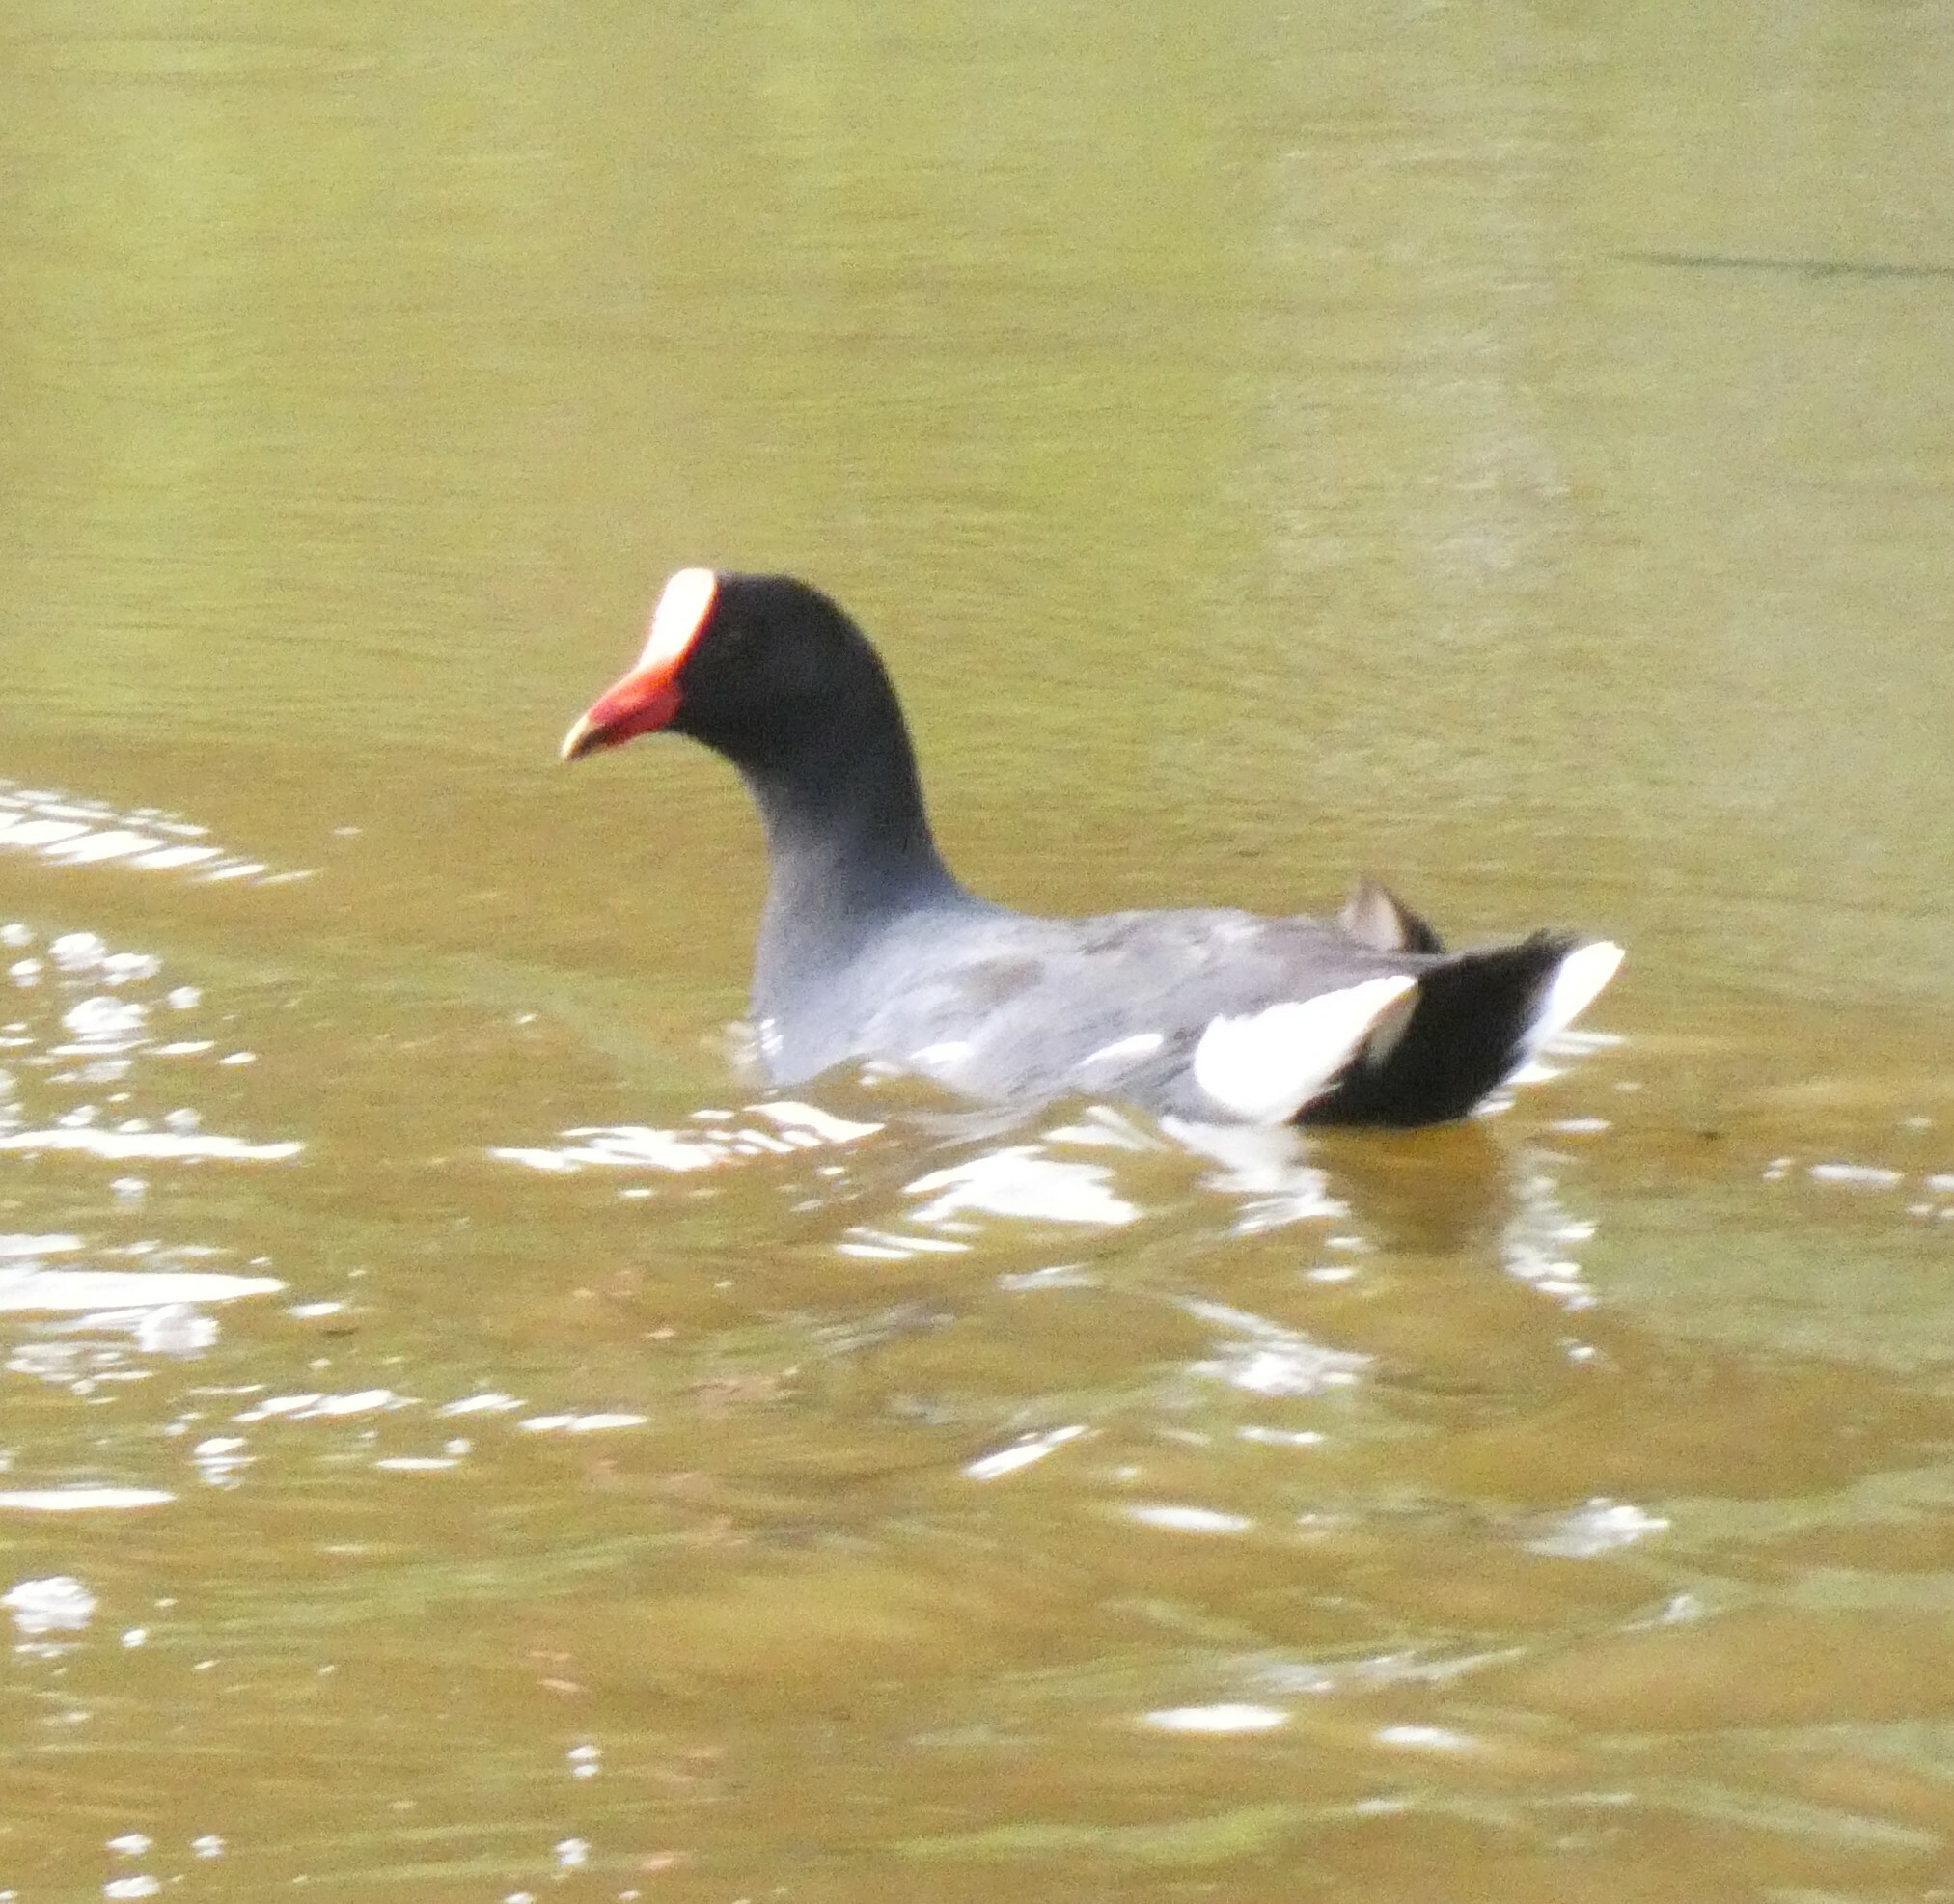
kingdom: Animalia
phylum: Chordata
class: Aves
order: Gruiformes
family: Rallidae
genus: Gallinula
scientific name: Gallinula chloropus
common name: Common moorhen
